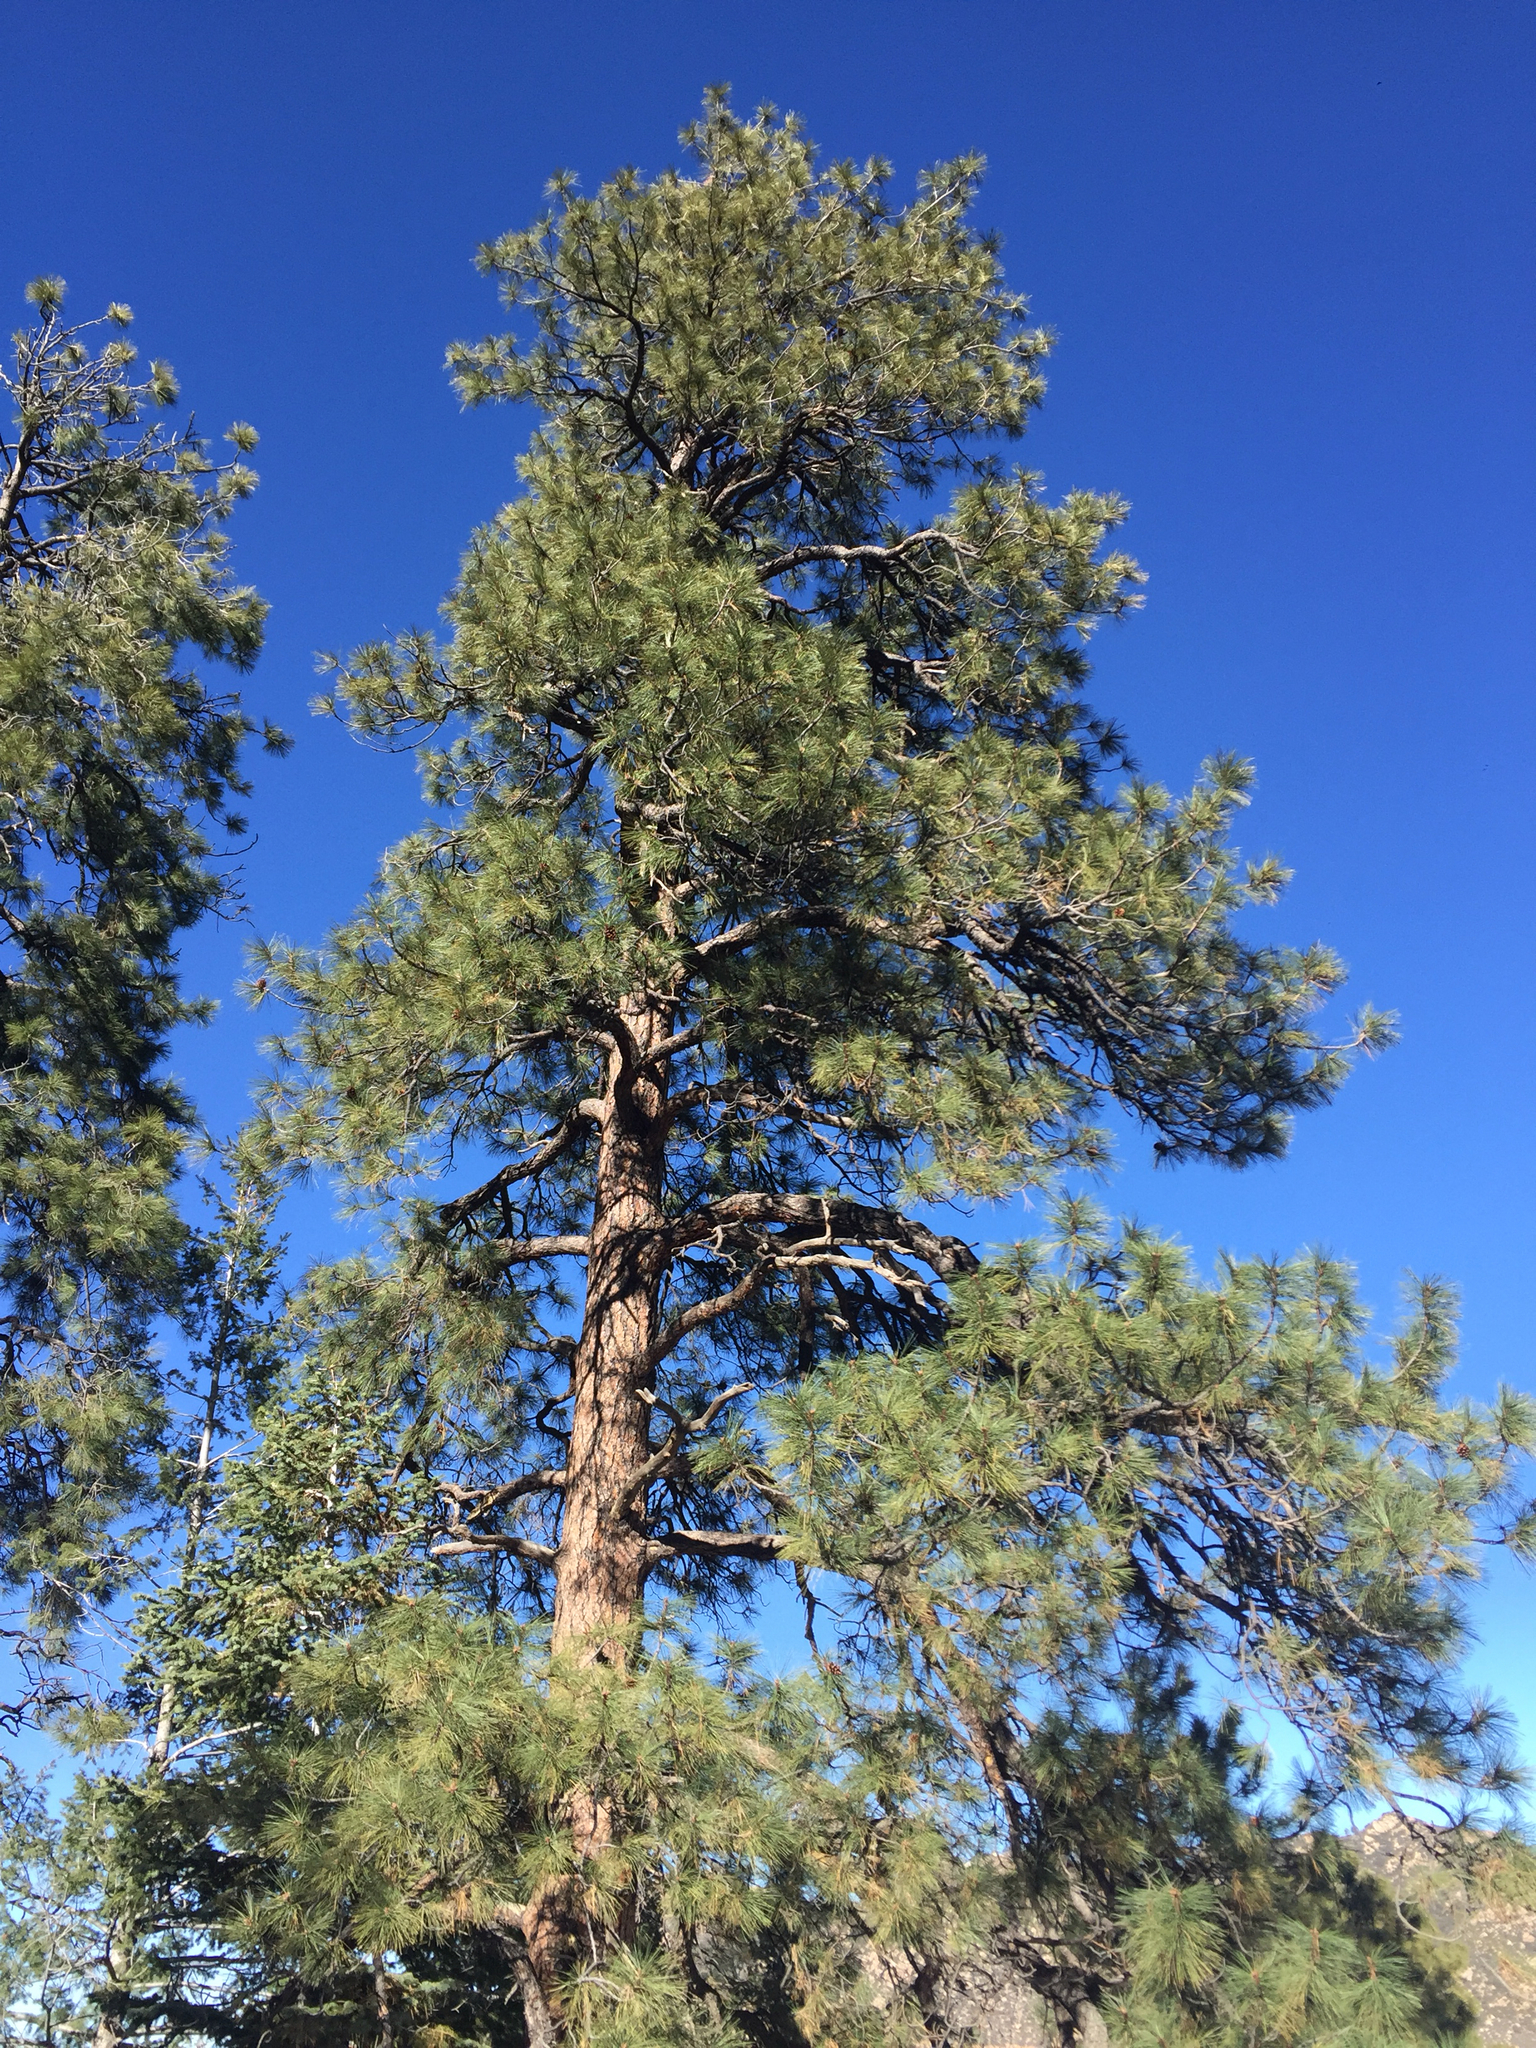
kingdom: Plantae
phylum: Tracheophyta
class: Pinopsida
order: Pinales
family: Pinaceae
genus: Pinus
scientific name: Pinus ponderosa
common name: Western yellow-pine
